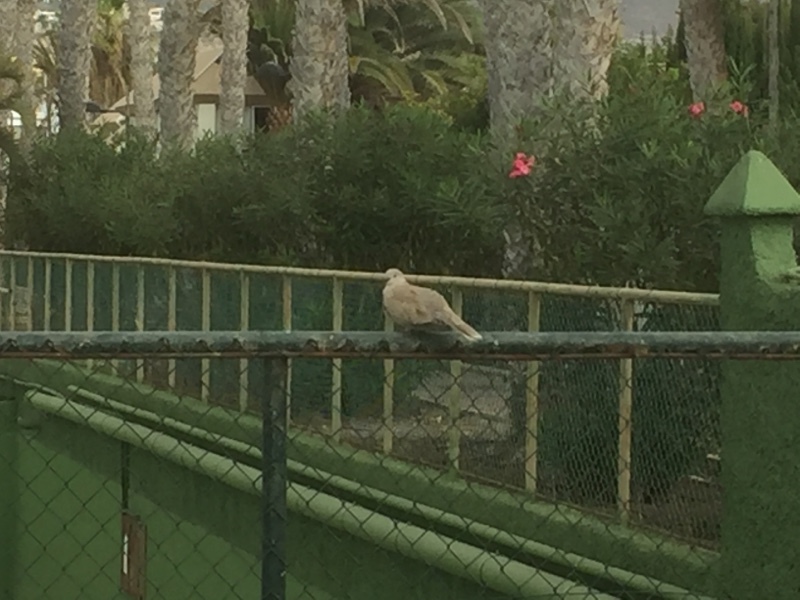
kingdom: Animalia
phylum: Chordata
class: Aves
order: Columbiformes
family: Columbidae
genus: Streptopelia
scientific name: Streptopelia decaocto
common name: Eurasian collared dove
